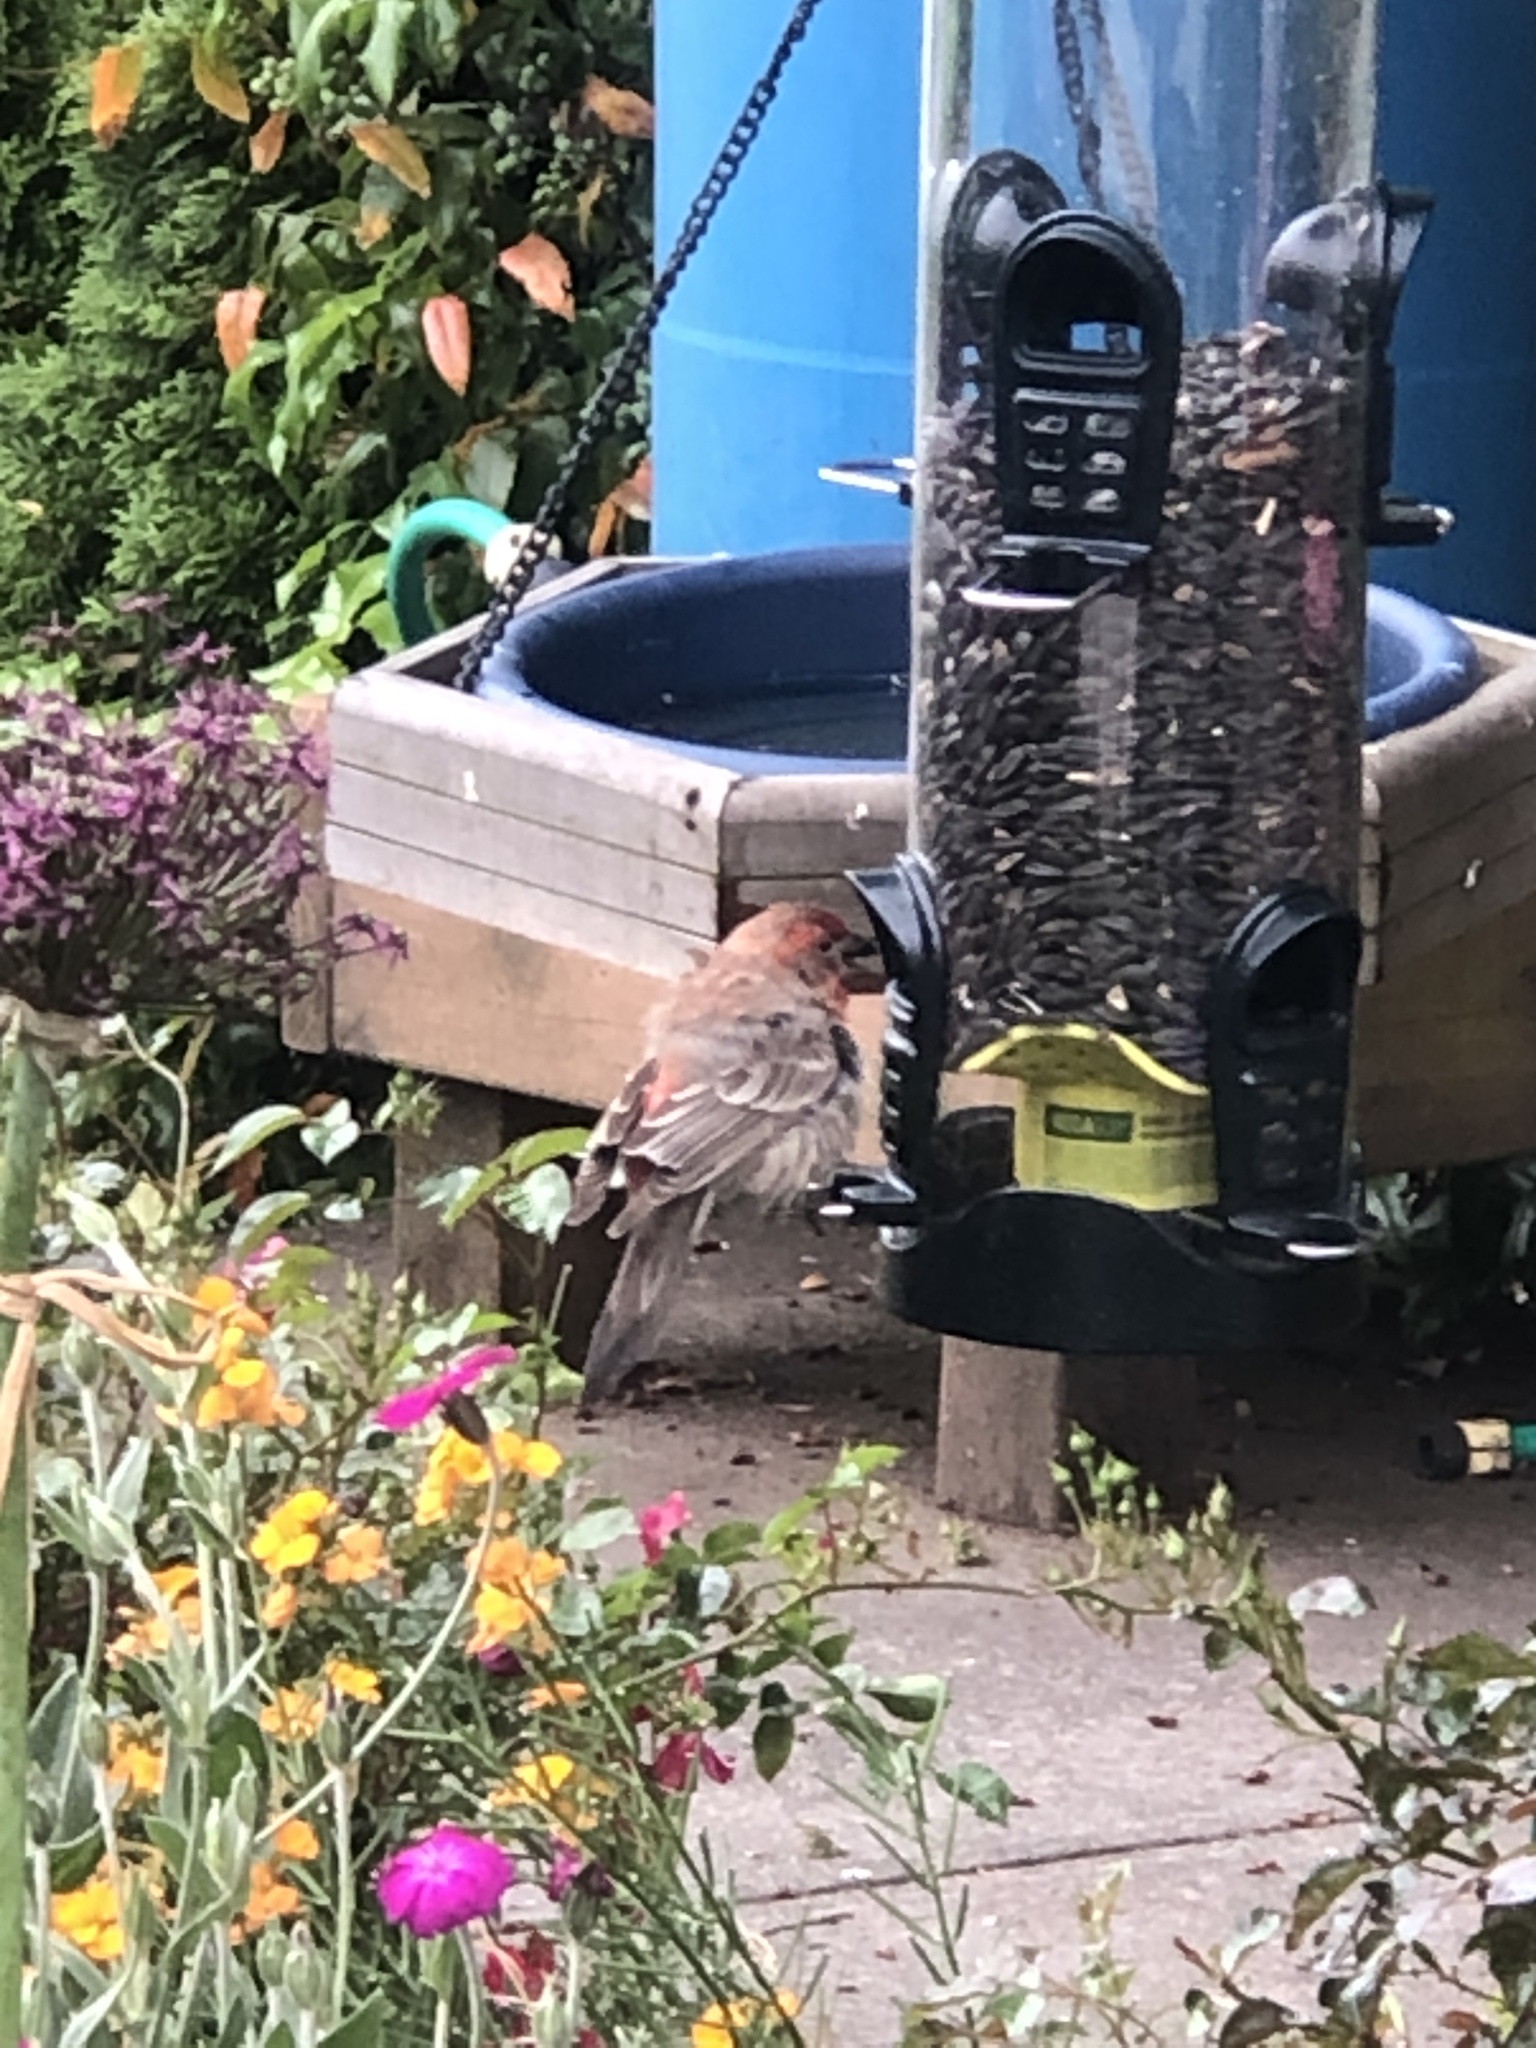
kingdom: Animalia
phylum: Chordata
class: Aves
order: Passeriformes
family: Fringillidae
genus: Haemorhous
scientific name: Haemorhous mexicanus
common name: House finch
